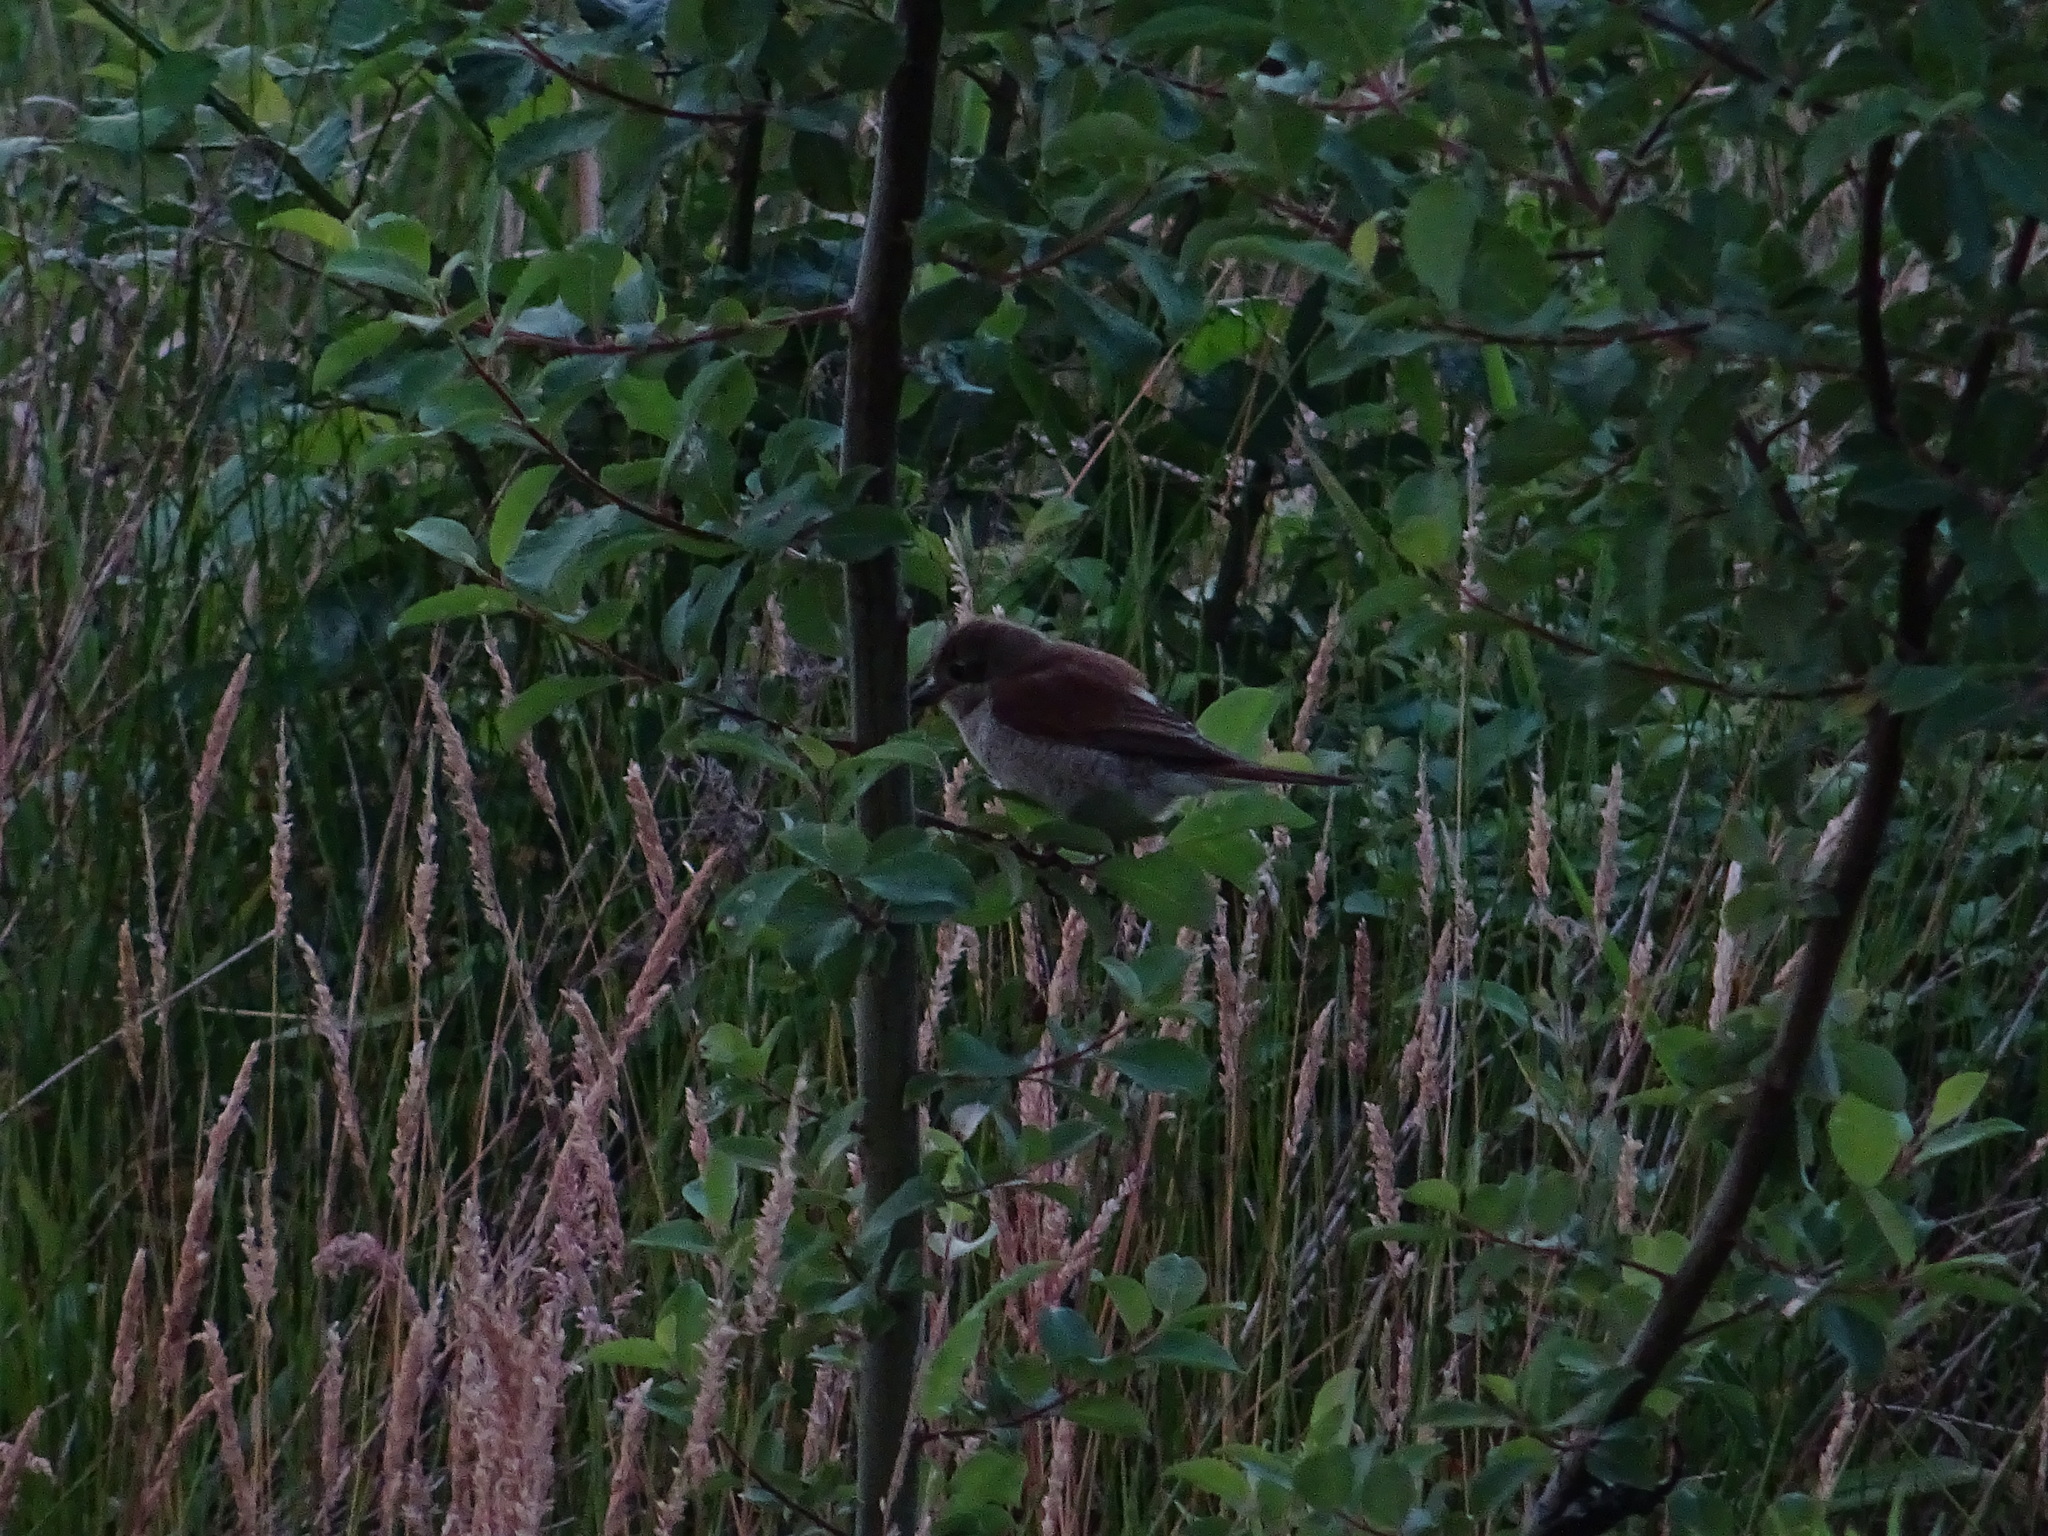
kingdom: Animalia
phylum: Chordata
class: Aves
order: Passeriformes
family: Laniidae
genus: Lanius
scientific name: Lanius collurio
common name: Red-backed shrike
